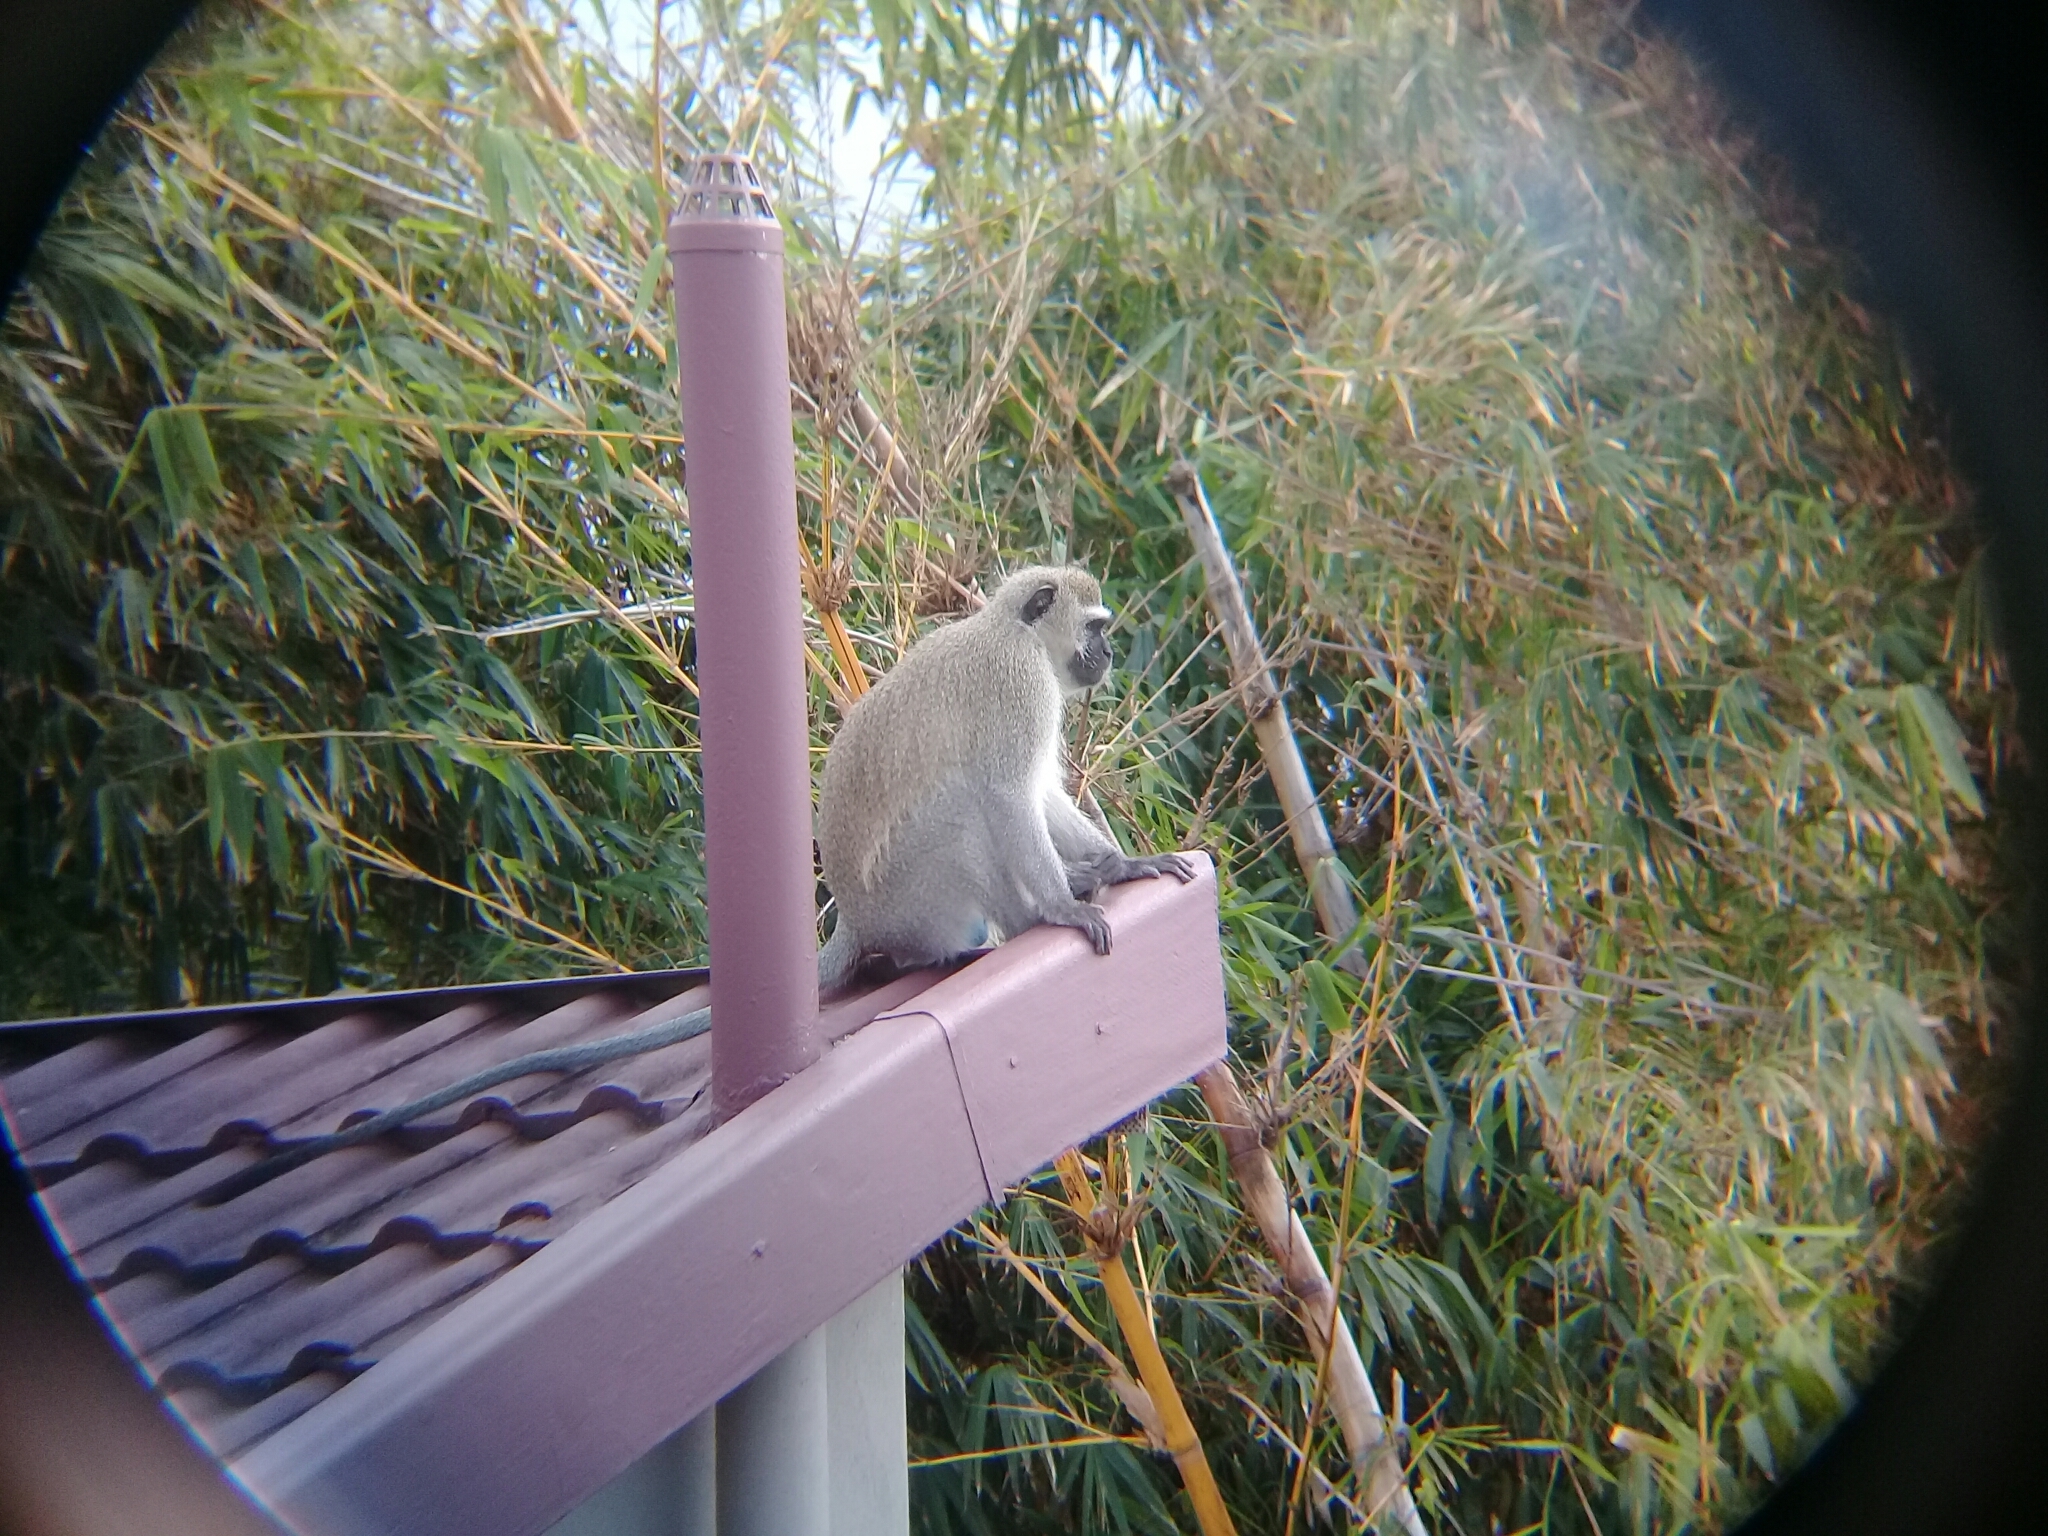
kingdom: Animalia
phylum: Chordata
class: Mammalia
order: Primates
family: Cercopithecidae
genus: Chlorocebus
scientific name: Chlorocebus pygerythrus
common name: Vervet monkey
